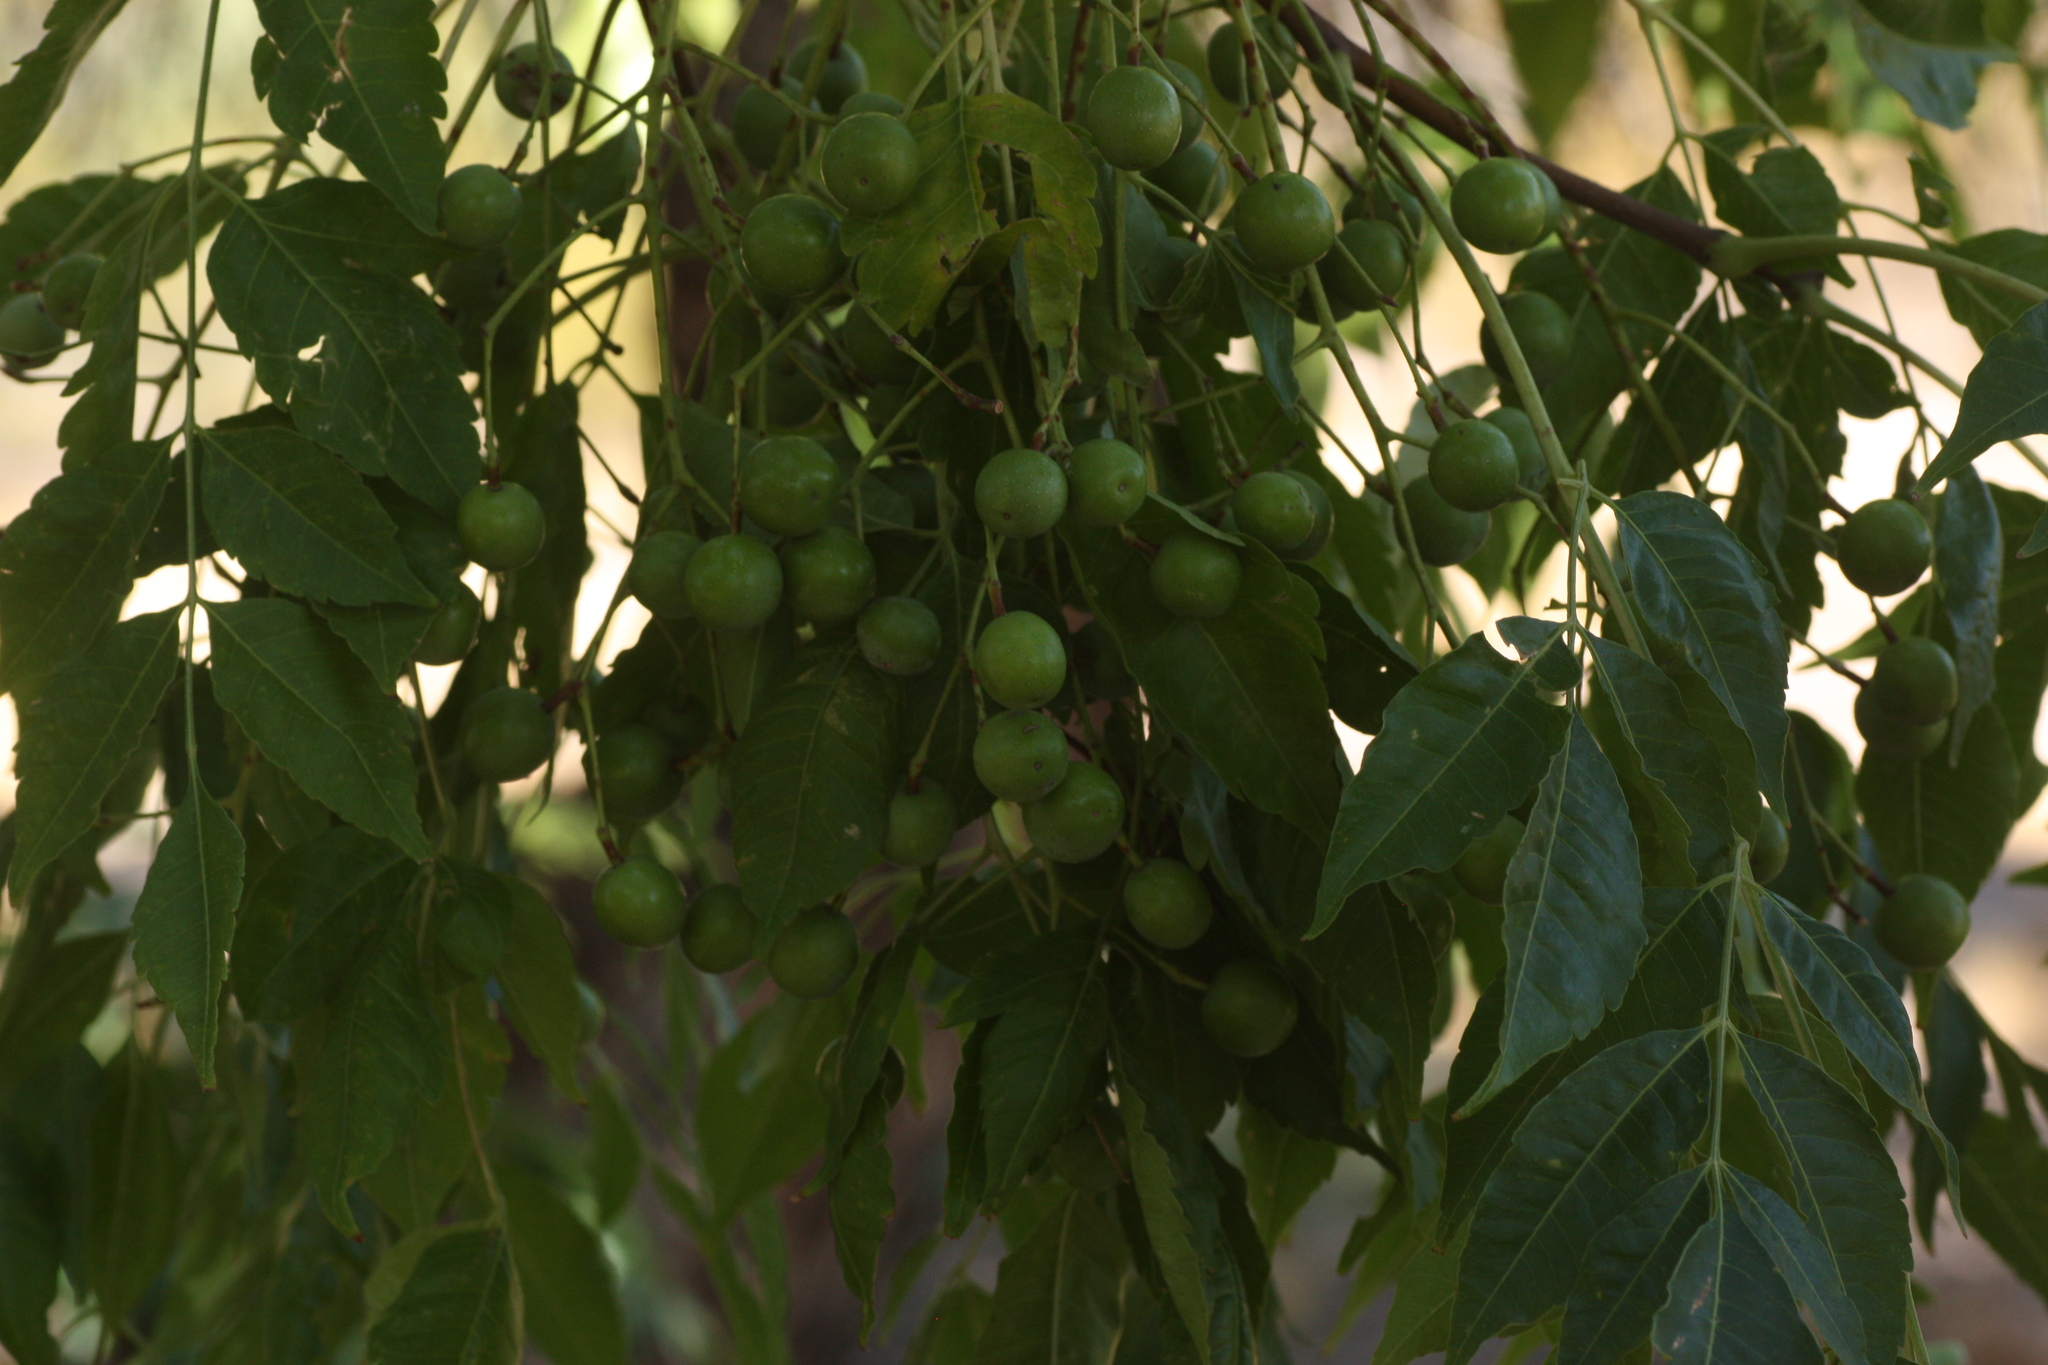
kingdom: Plantae
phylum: Tracheophyta
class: Magnoliopsida
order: Sapindales
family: Meliaceae
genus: Melia
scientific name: Melia azedarach
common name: Chinaberrytree
